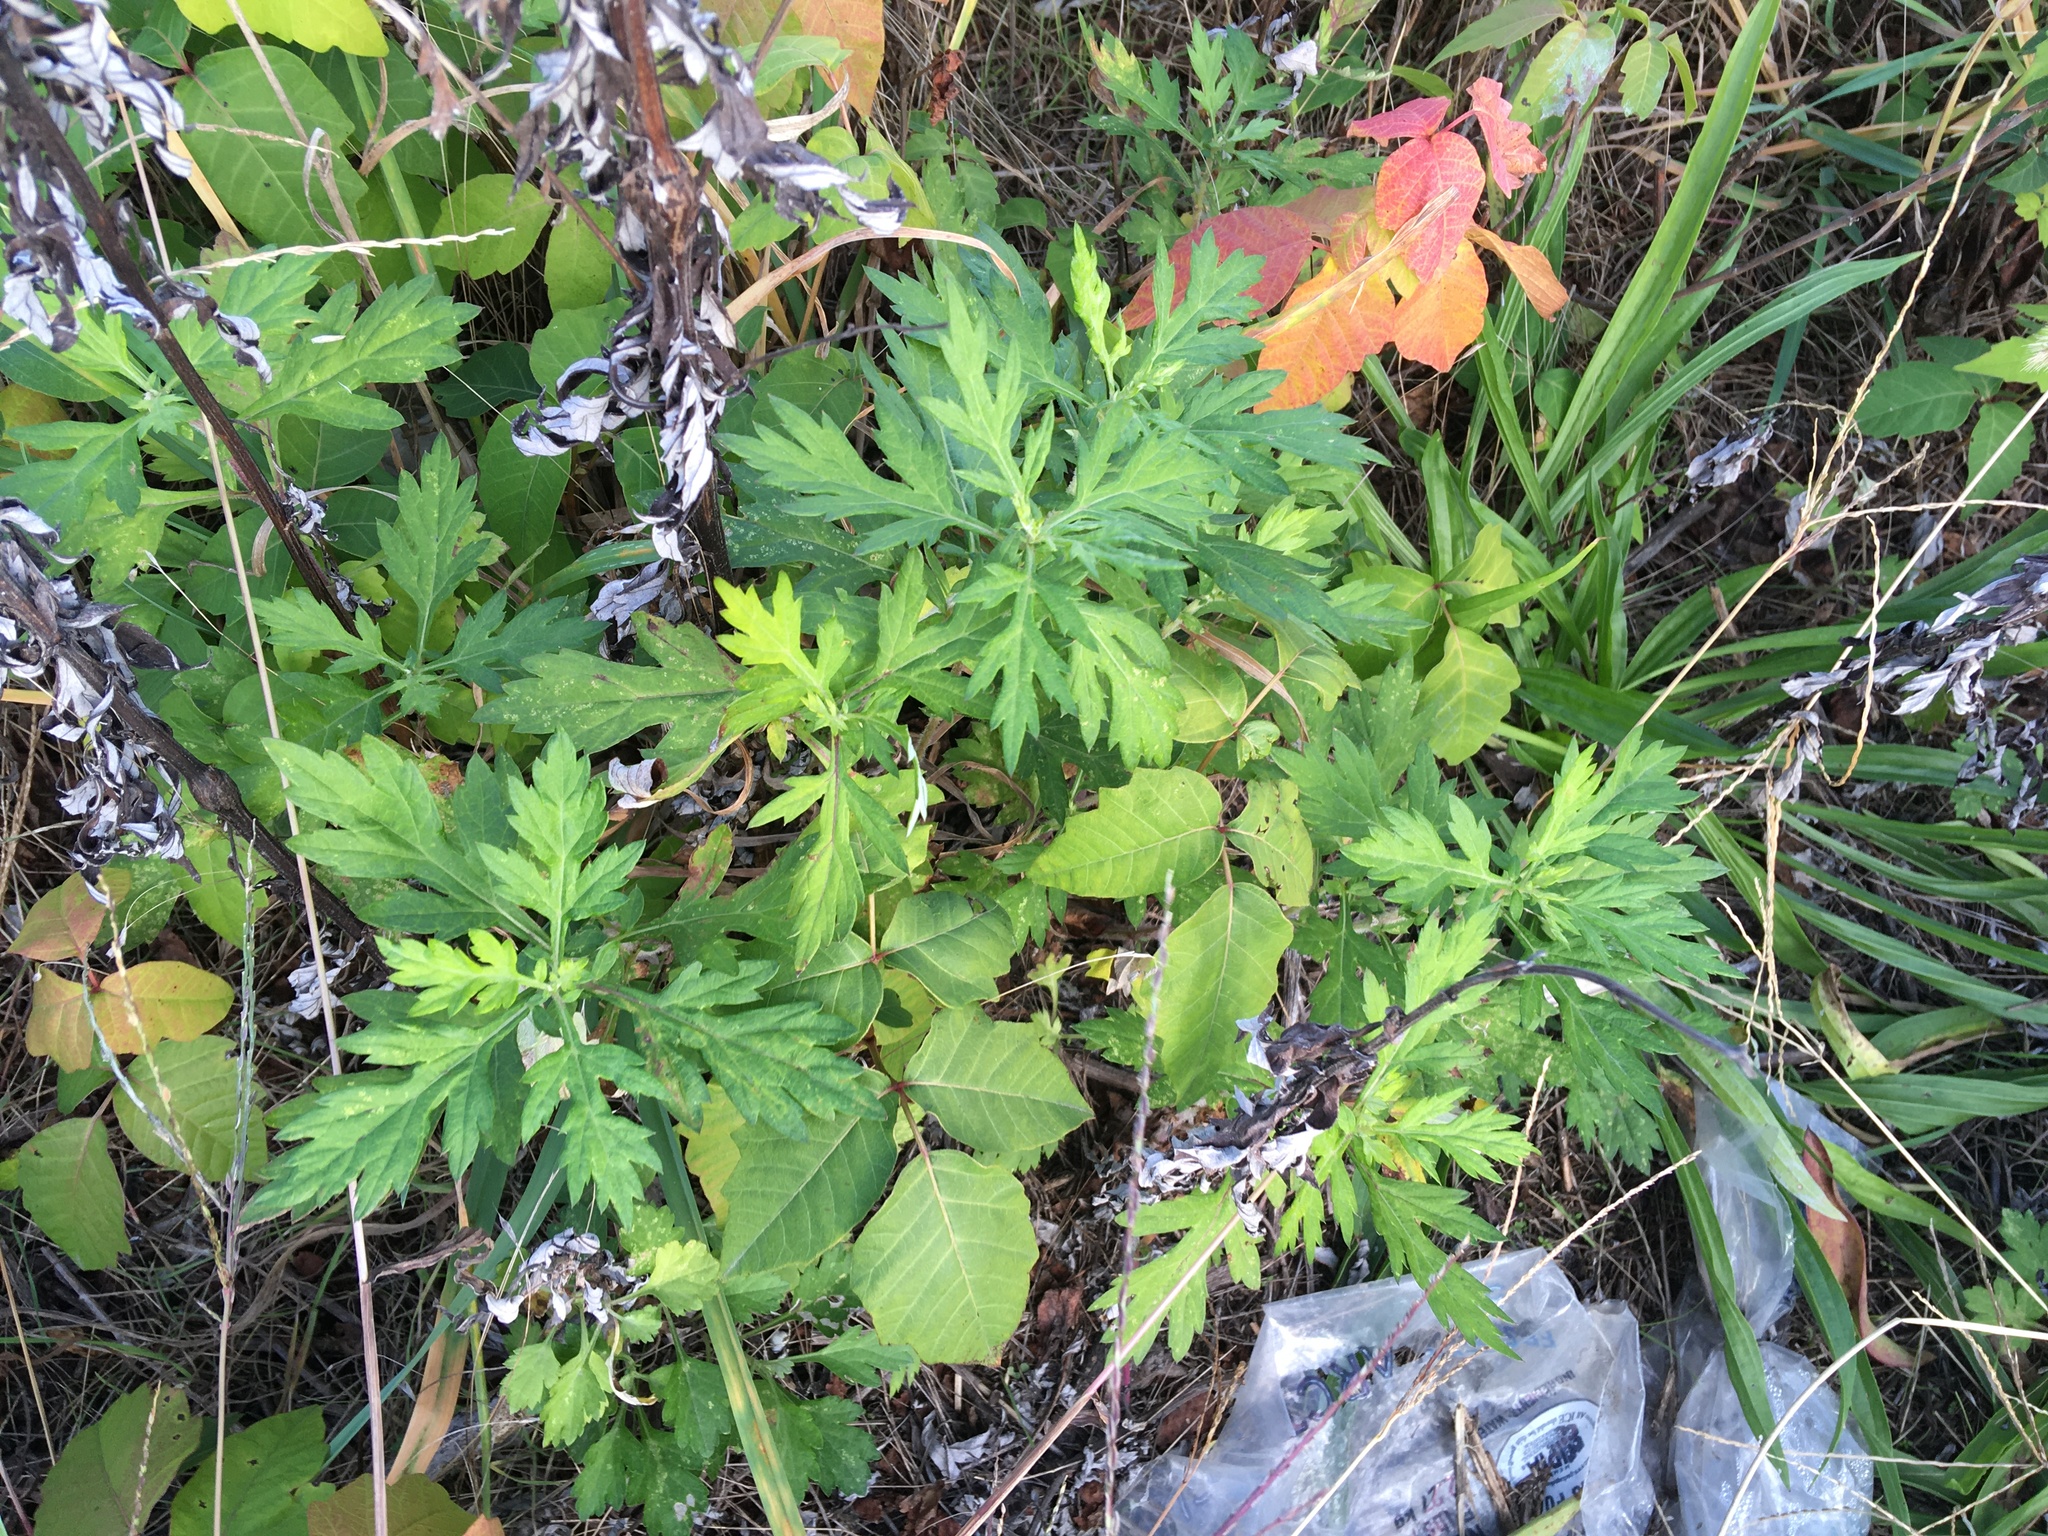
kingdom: Plantae
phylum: Tracheophyta
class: Magnoliopsida
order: Asterales
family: Asteraceae
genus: Artemisia
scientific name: Artemisia vulgaris
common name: Mugwort
